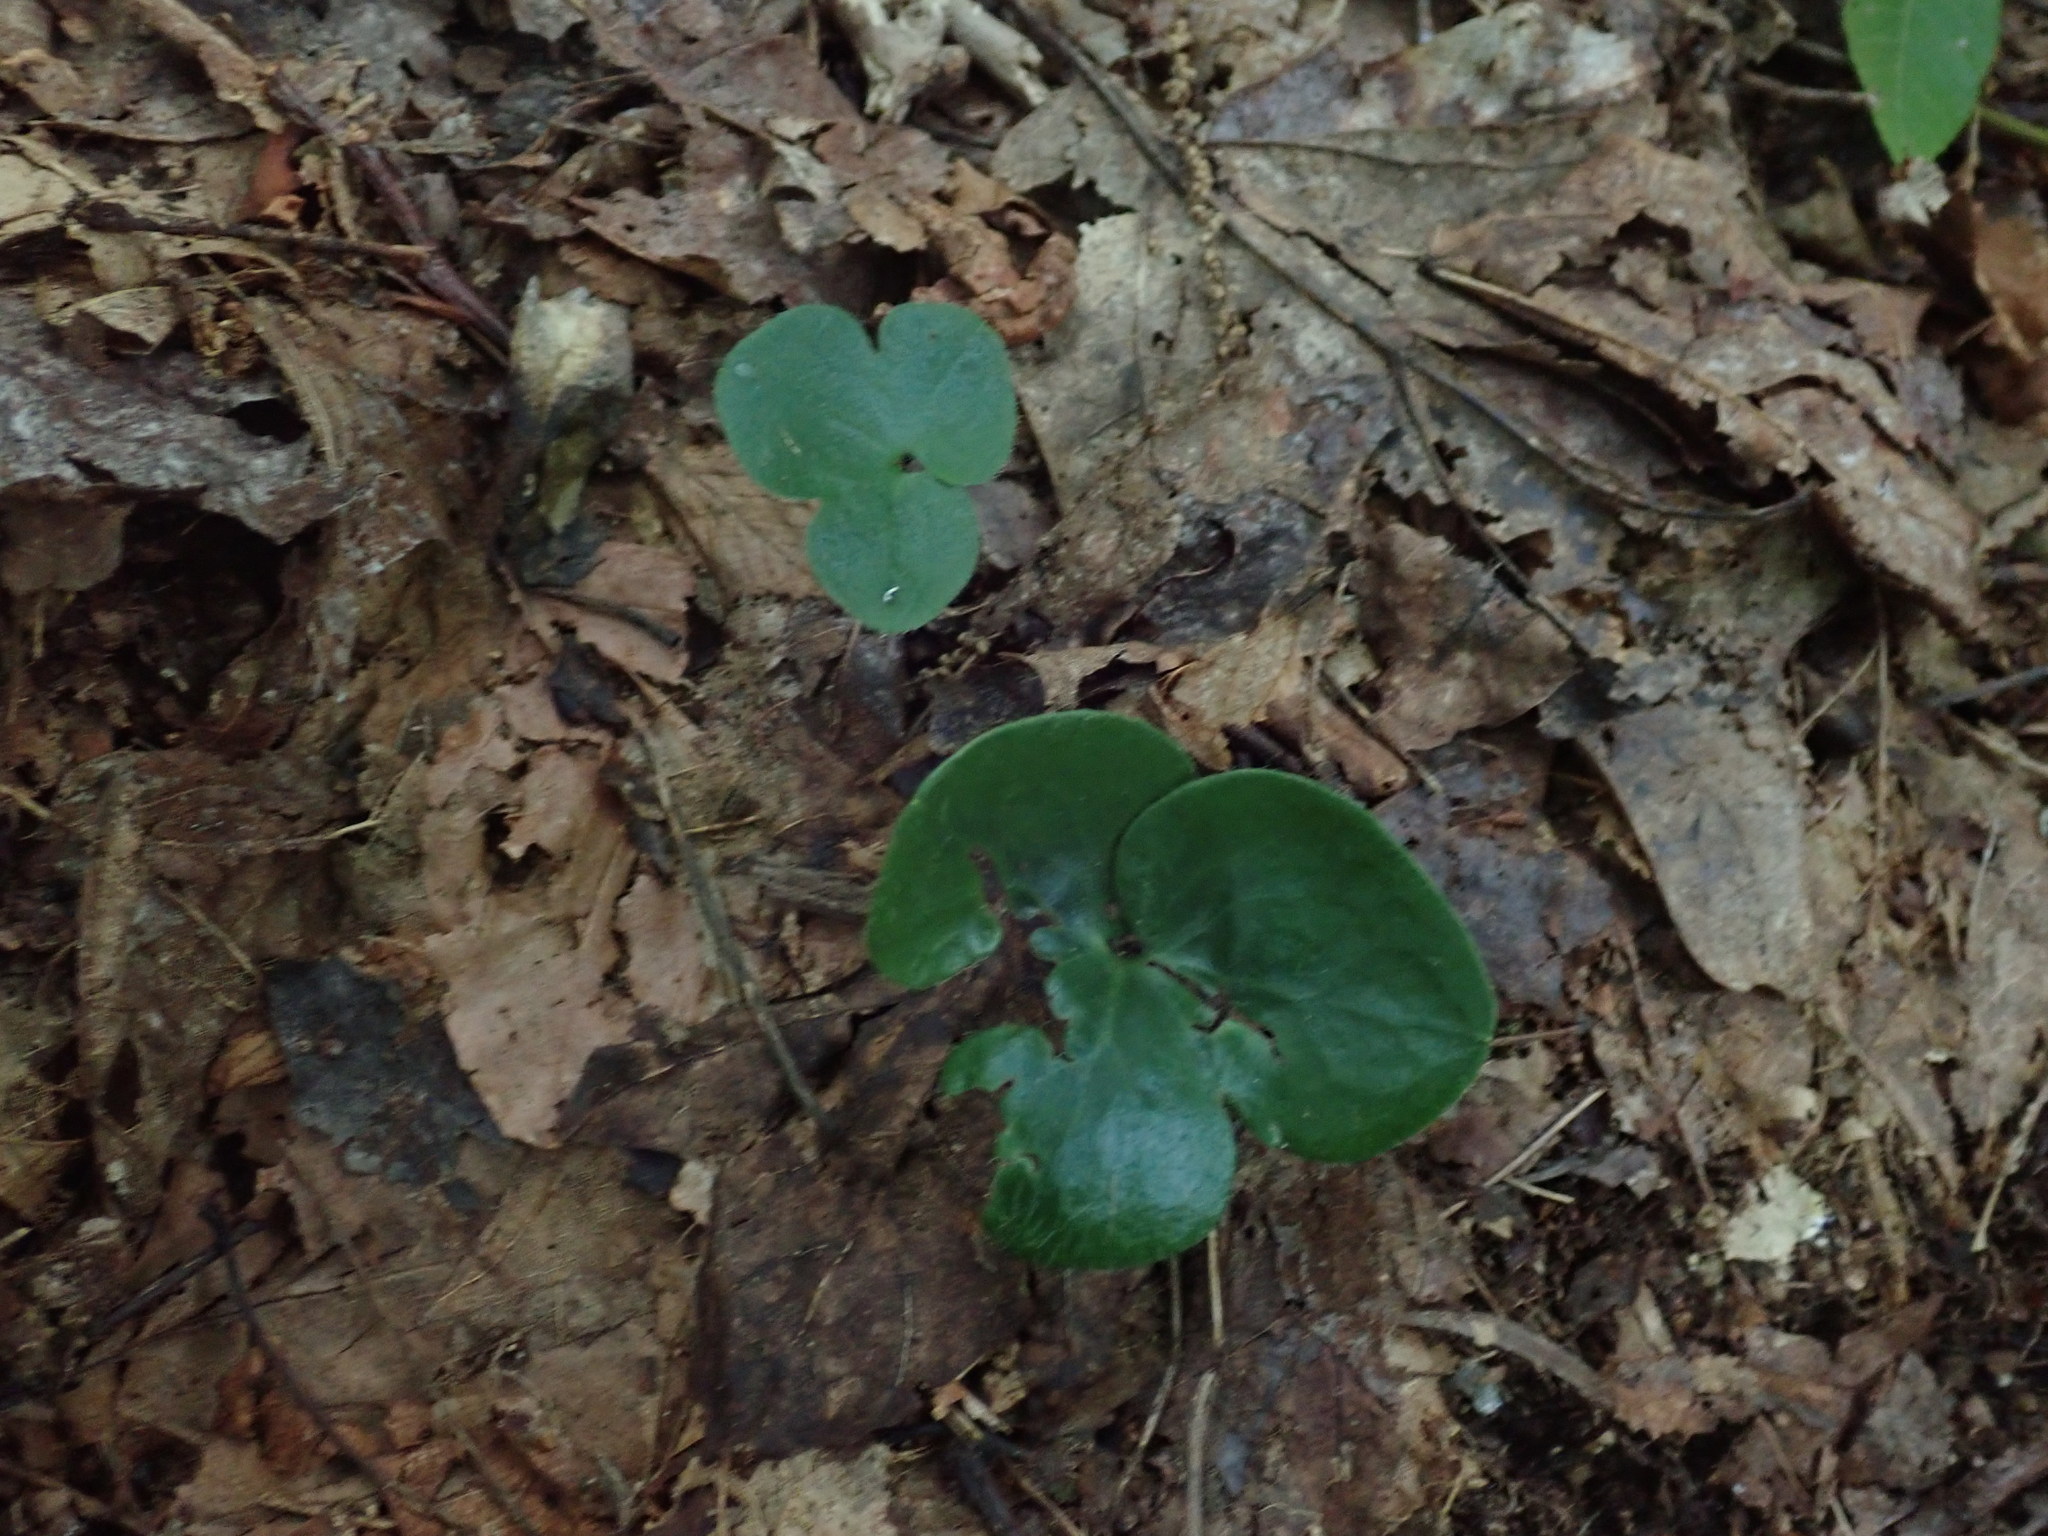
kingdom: Plantae
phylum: Tracheophyta
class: Magnoliopsida
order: Ranunculales
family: Ranunculaceae
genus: Hepatica
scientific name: Hepatica americana
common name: American hepatica
